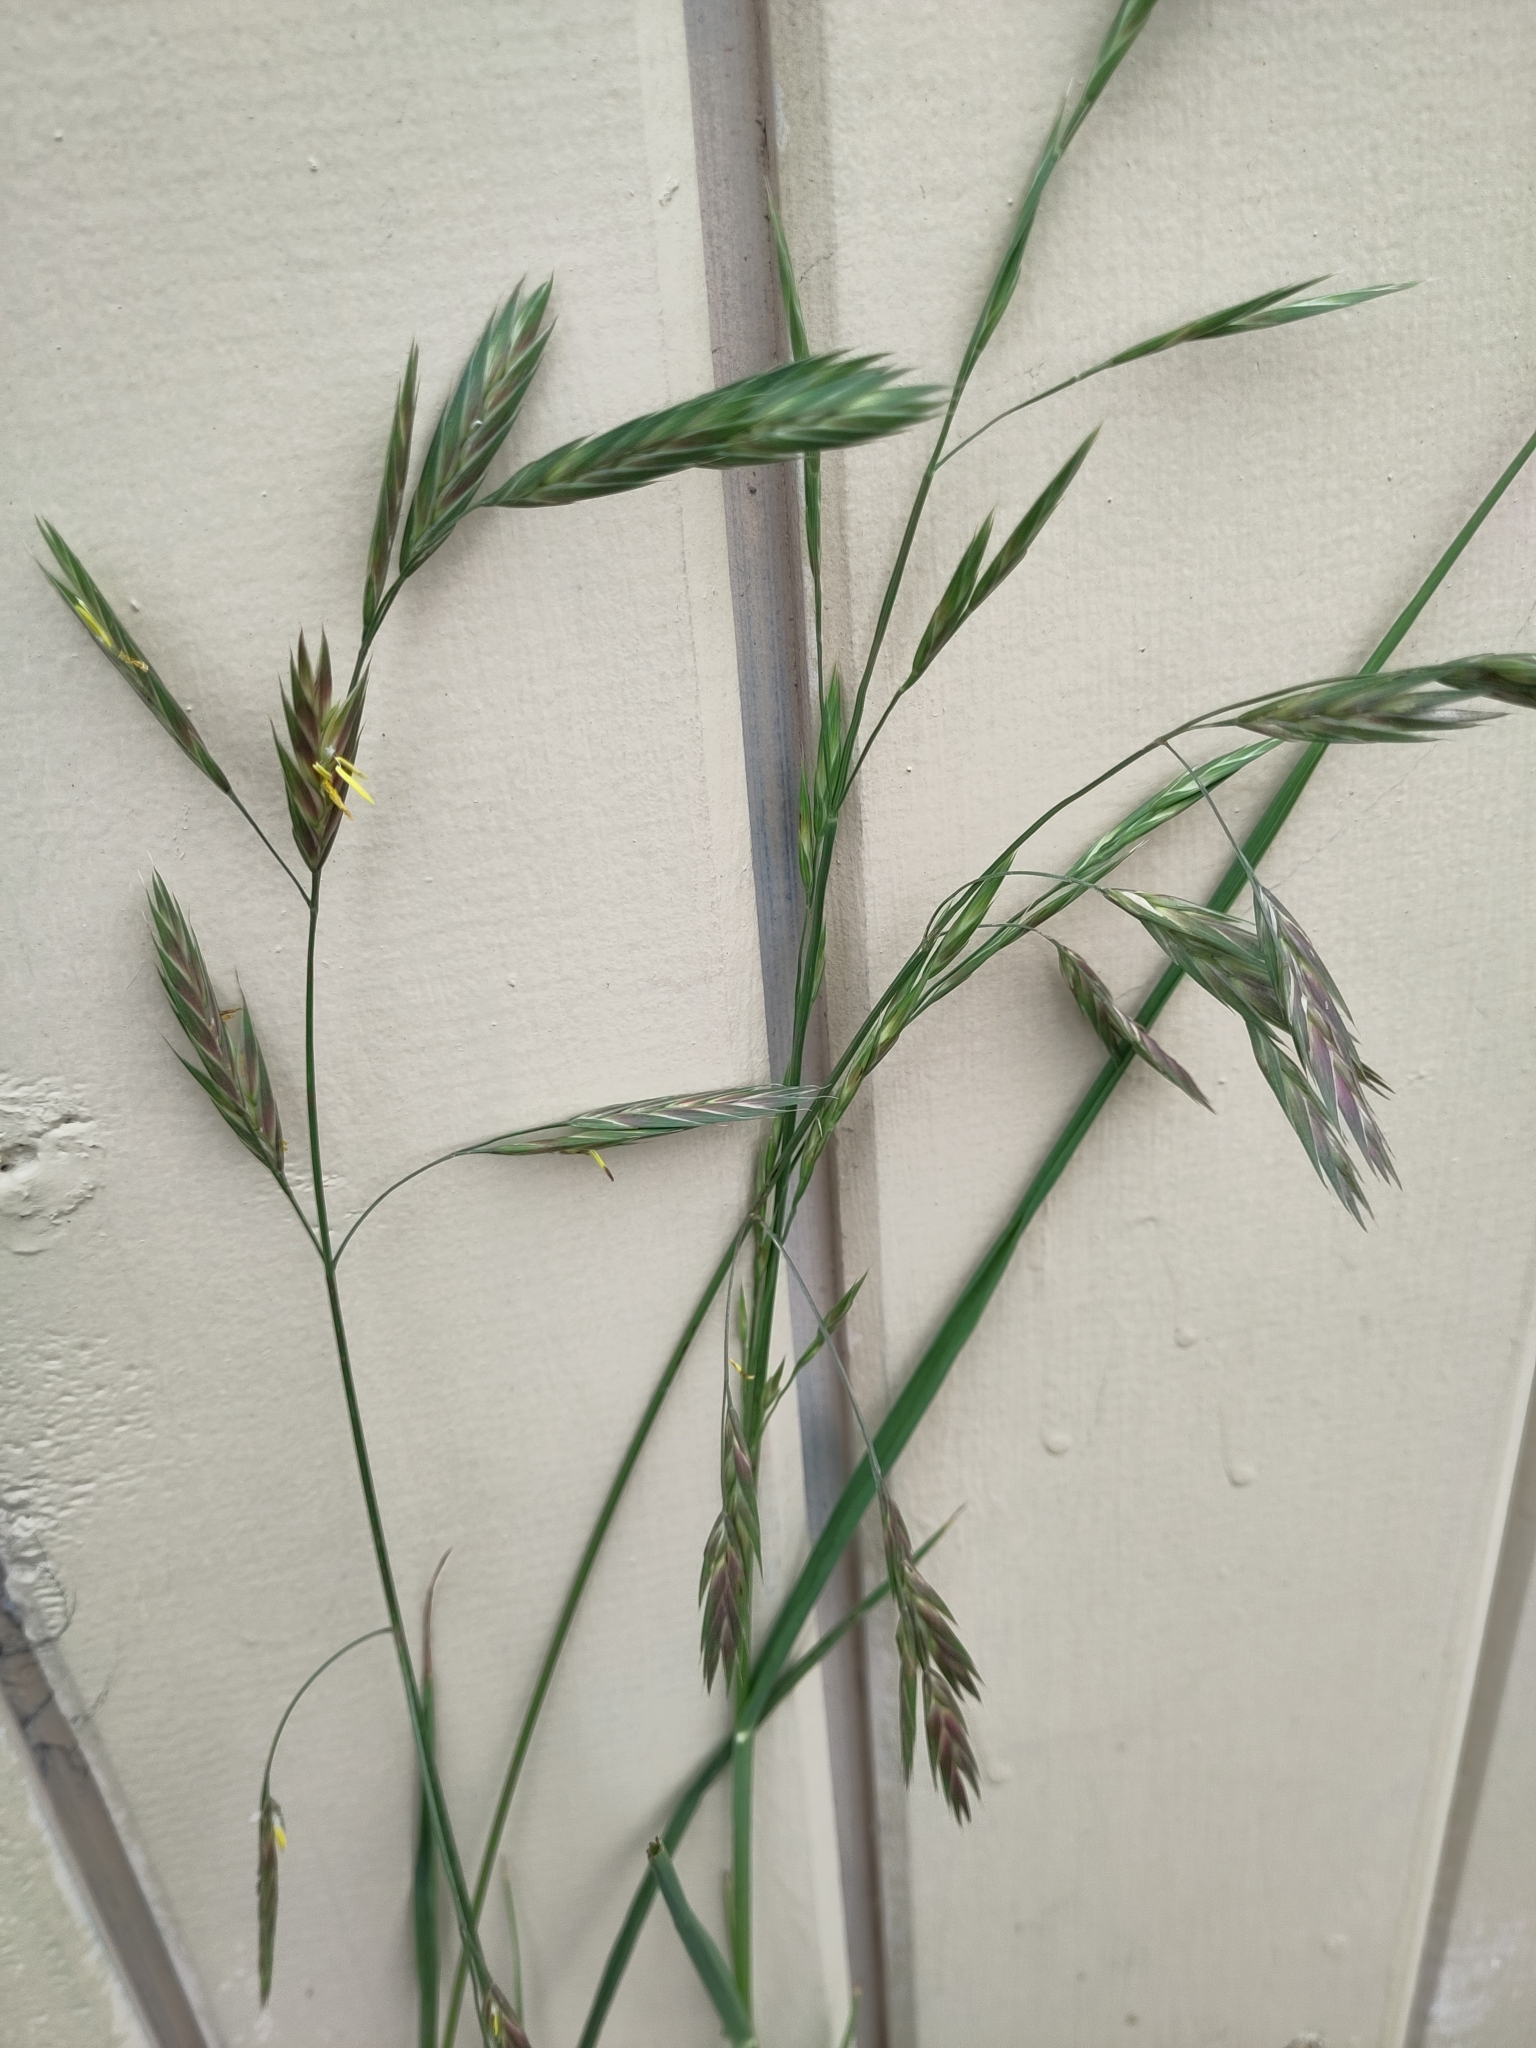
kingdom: Plantae
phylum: Tracheophyta
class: Liliopsida
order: Poales
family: Poaceae
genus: Bromus
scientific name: Bromus catharticus
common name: Rescuegrass
